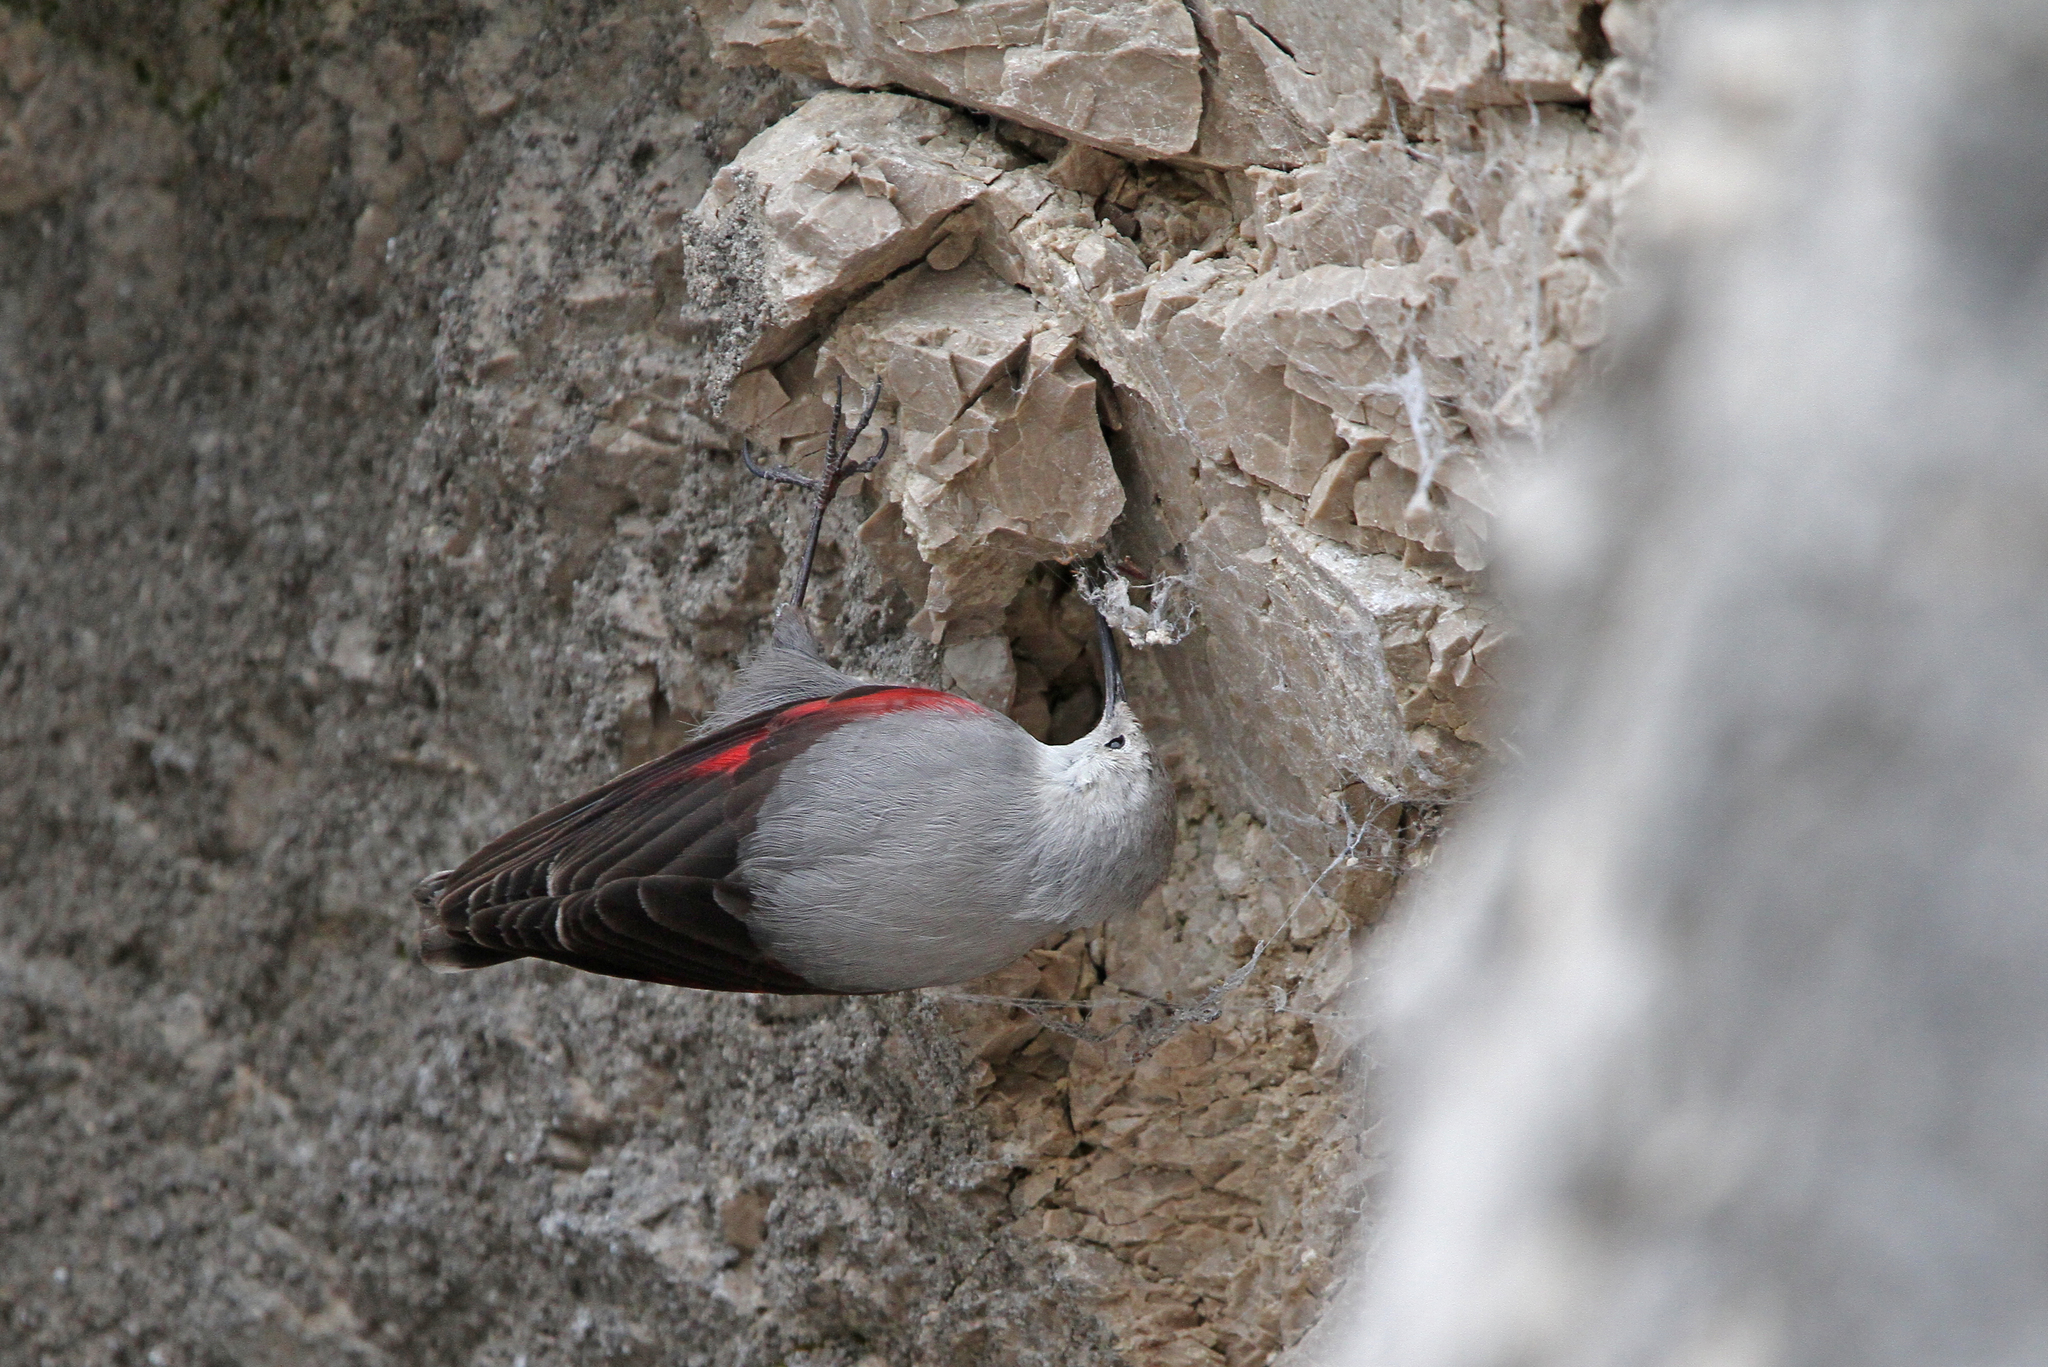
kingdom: Animalia
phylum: Chordata
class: Aves
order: Passeriformes
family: Tichodromidae
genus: Tichodroma
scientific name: Tichodroma muraria
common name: Wallcreeper
